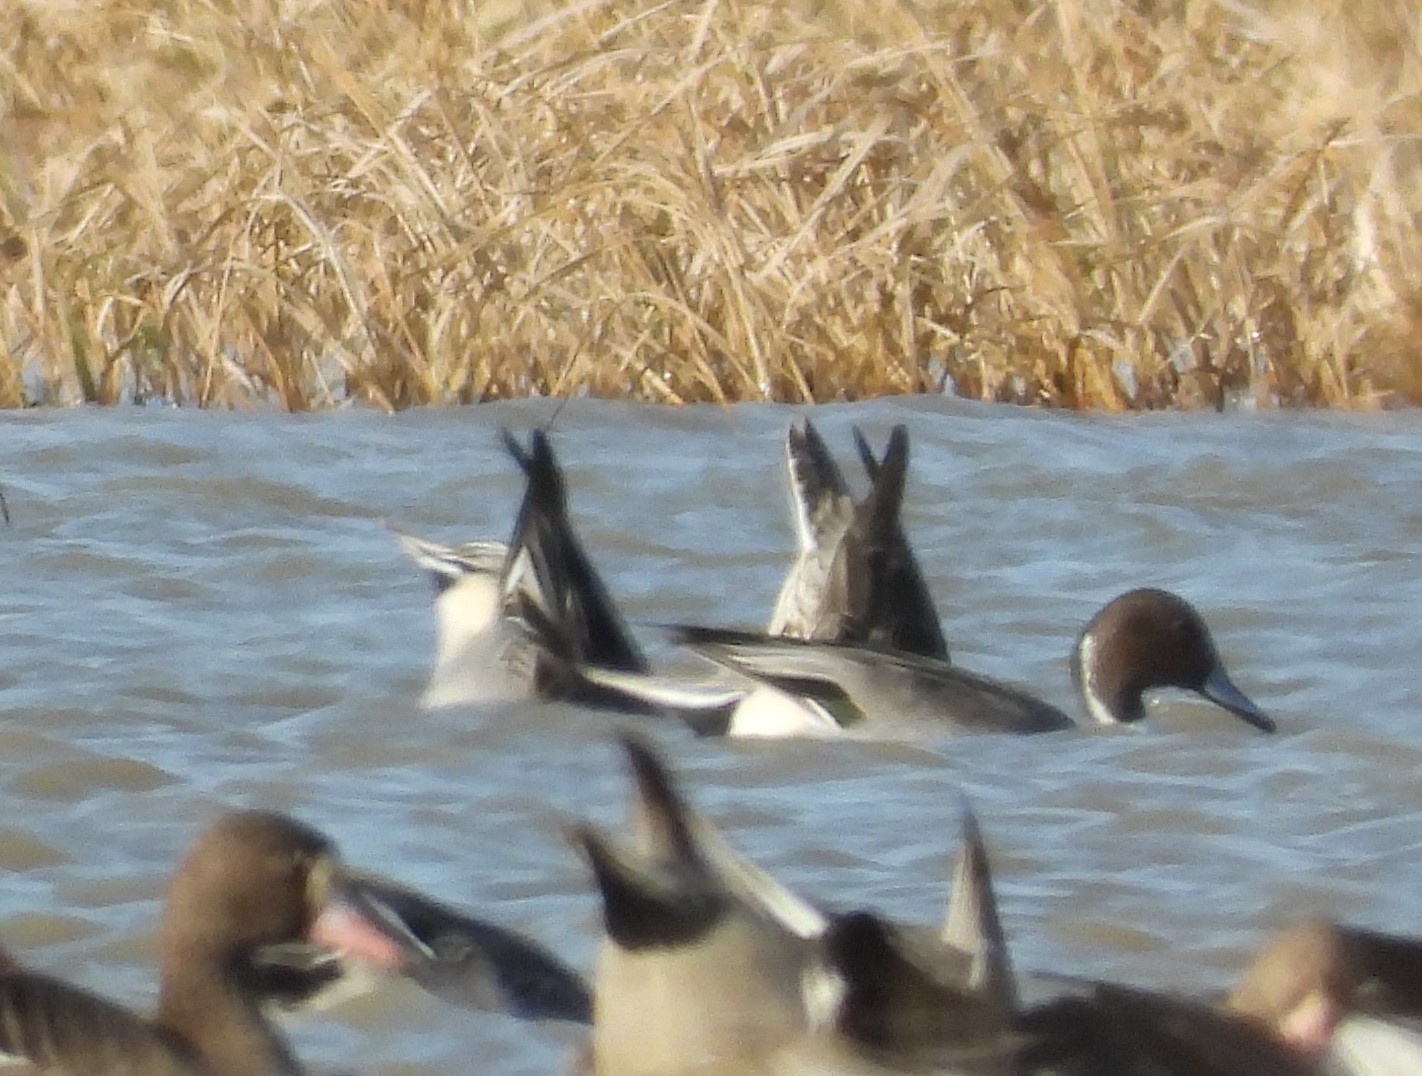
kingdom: Animalia
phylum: Chordata
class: Aves
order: Anseriformes
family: Anatidae
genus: Anas
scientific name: Anas acuta
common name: Northern pintail
